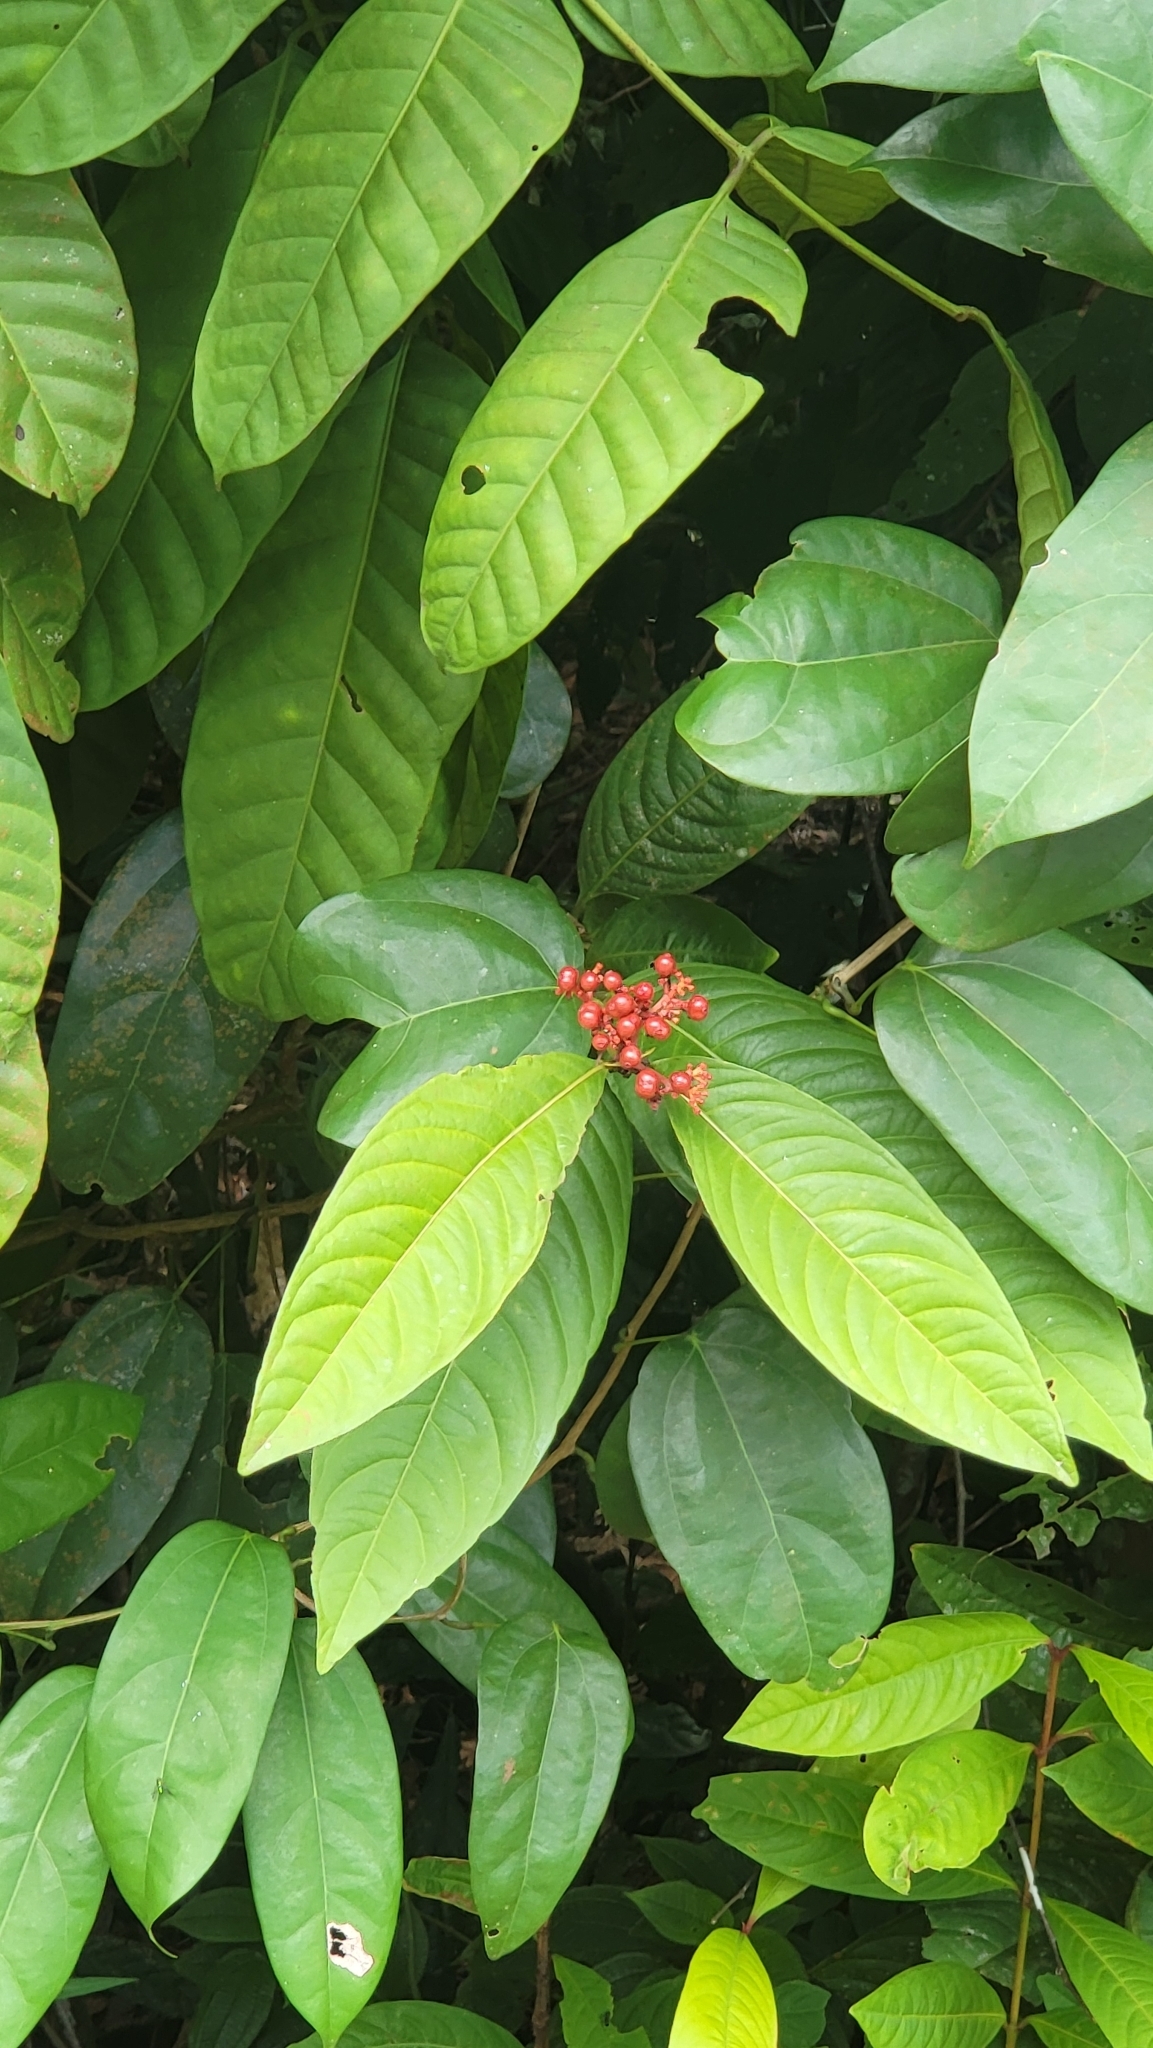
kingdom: Plantae
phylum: Tracheophyta
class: Magnoliopsida
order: Gentianales
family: Rubiaceae
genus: Ixora
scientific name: Ixora congesta
